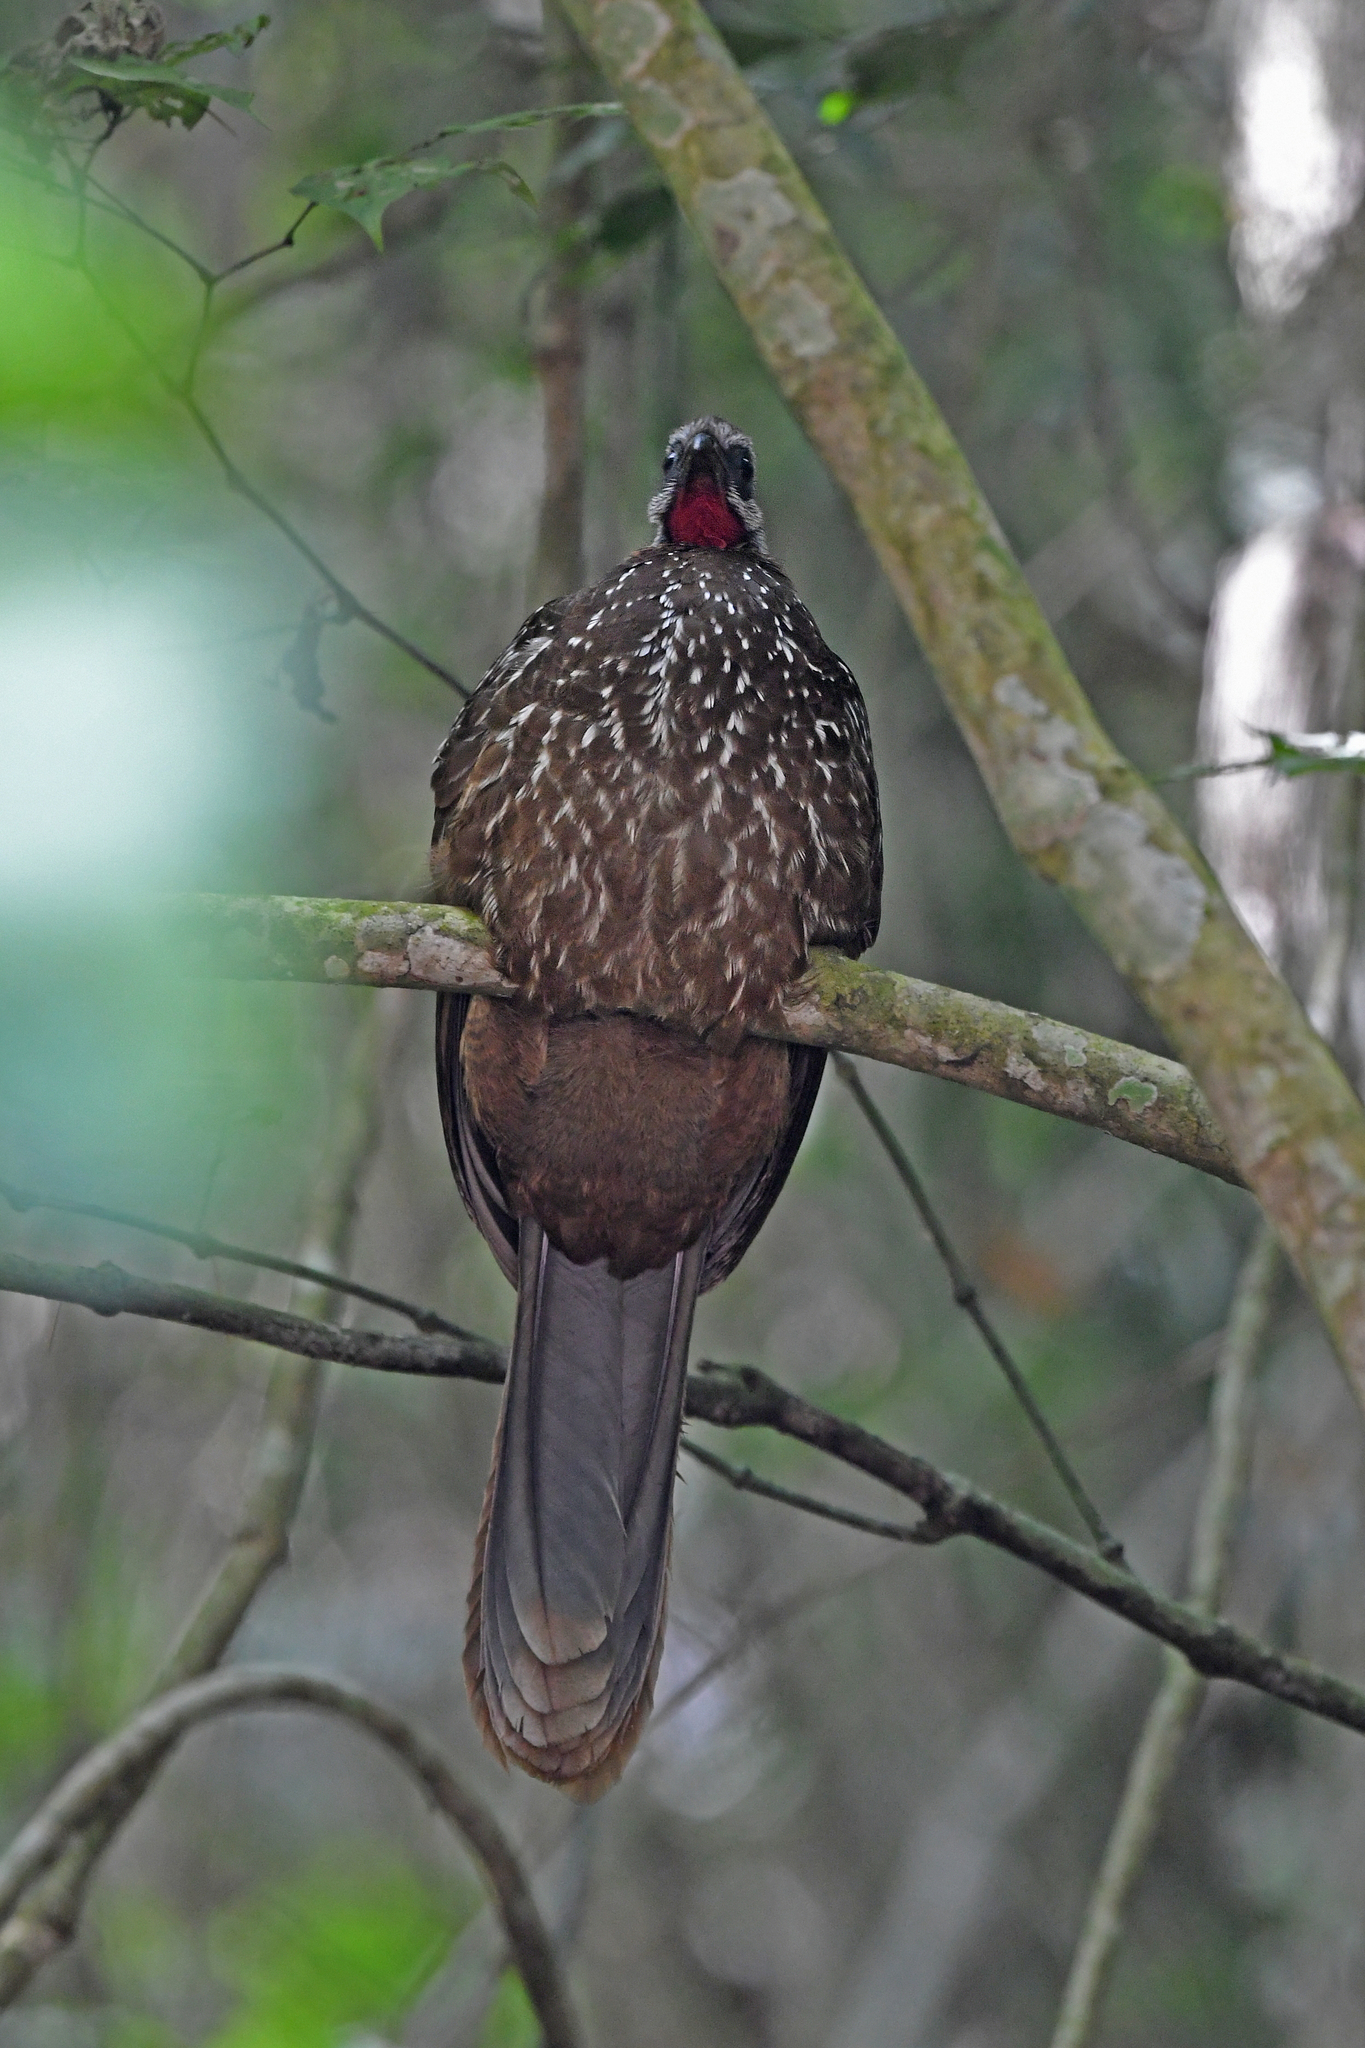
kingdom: Animalia
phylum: Chordata
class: Aves
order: Galliformes
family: Cracidae
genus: Penelope
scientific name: Penelope argyrotis
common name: Band-tailed guan
